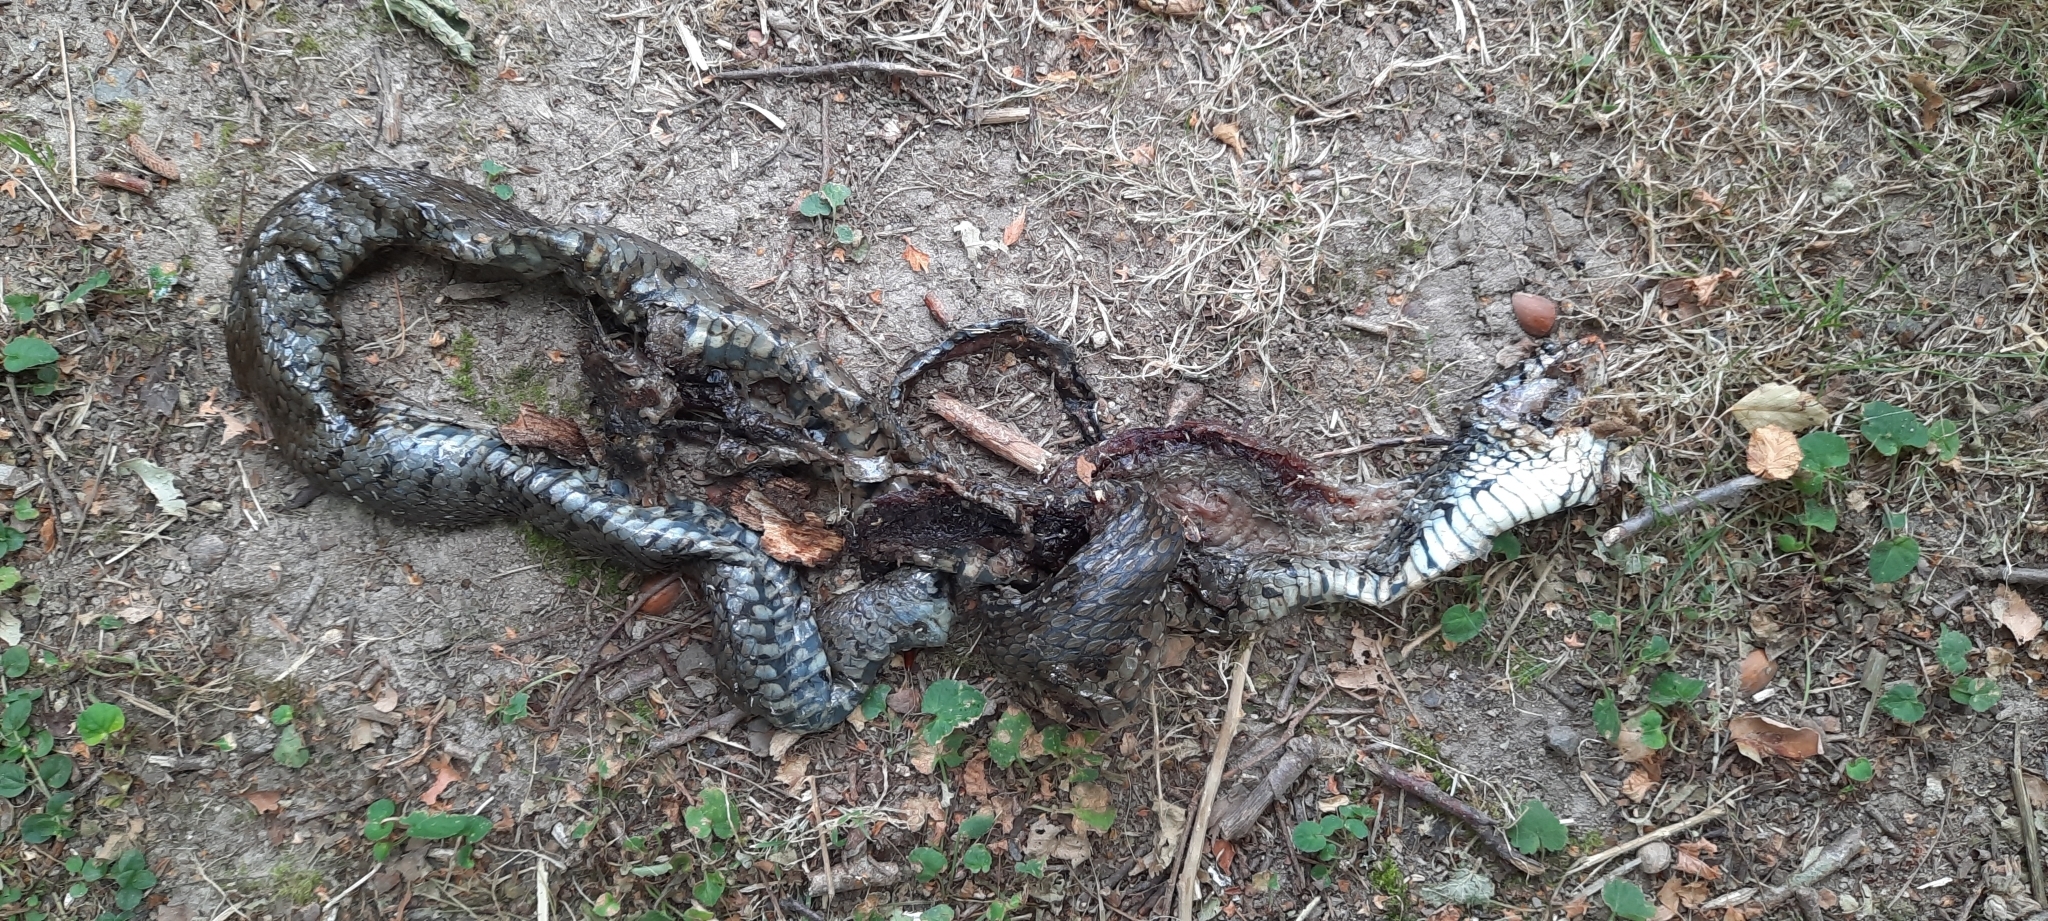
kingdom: Animalia
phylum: Chordata
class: Squamata
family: Colubridae
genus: Natrix
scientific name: Natrix helvetica
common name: Banded grass snake
